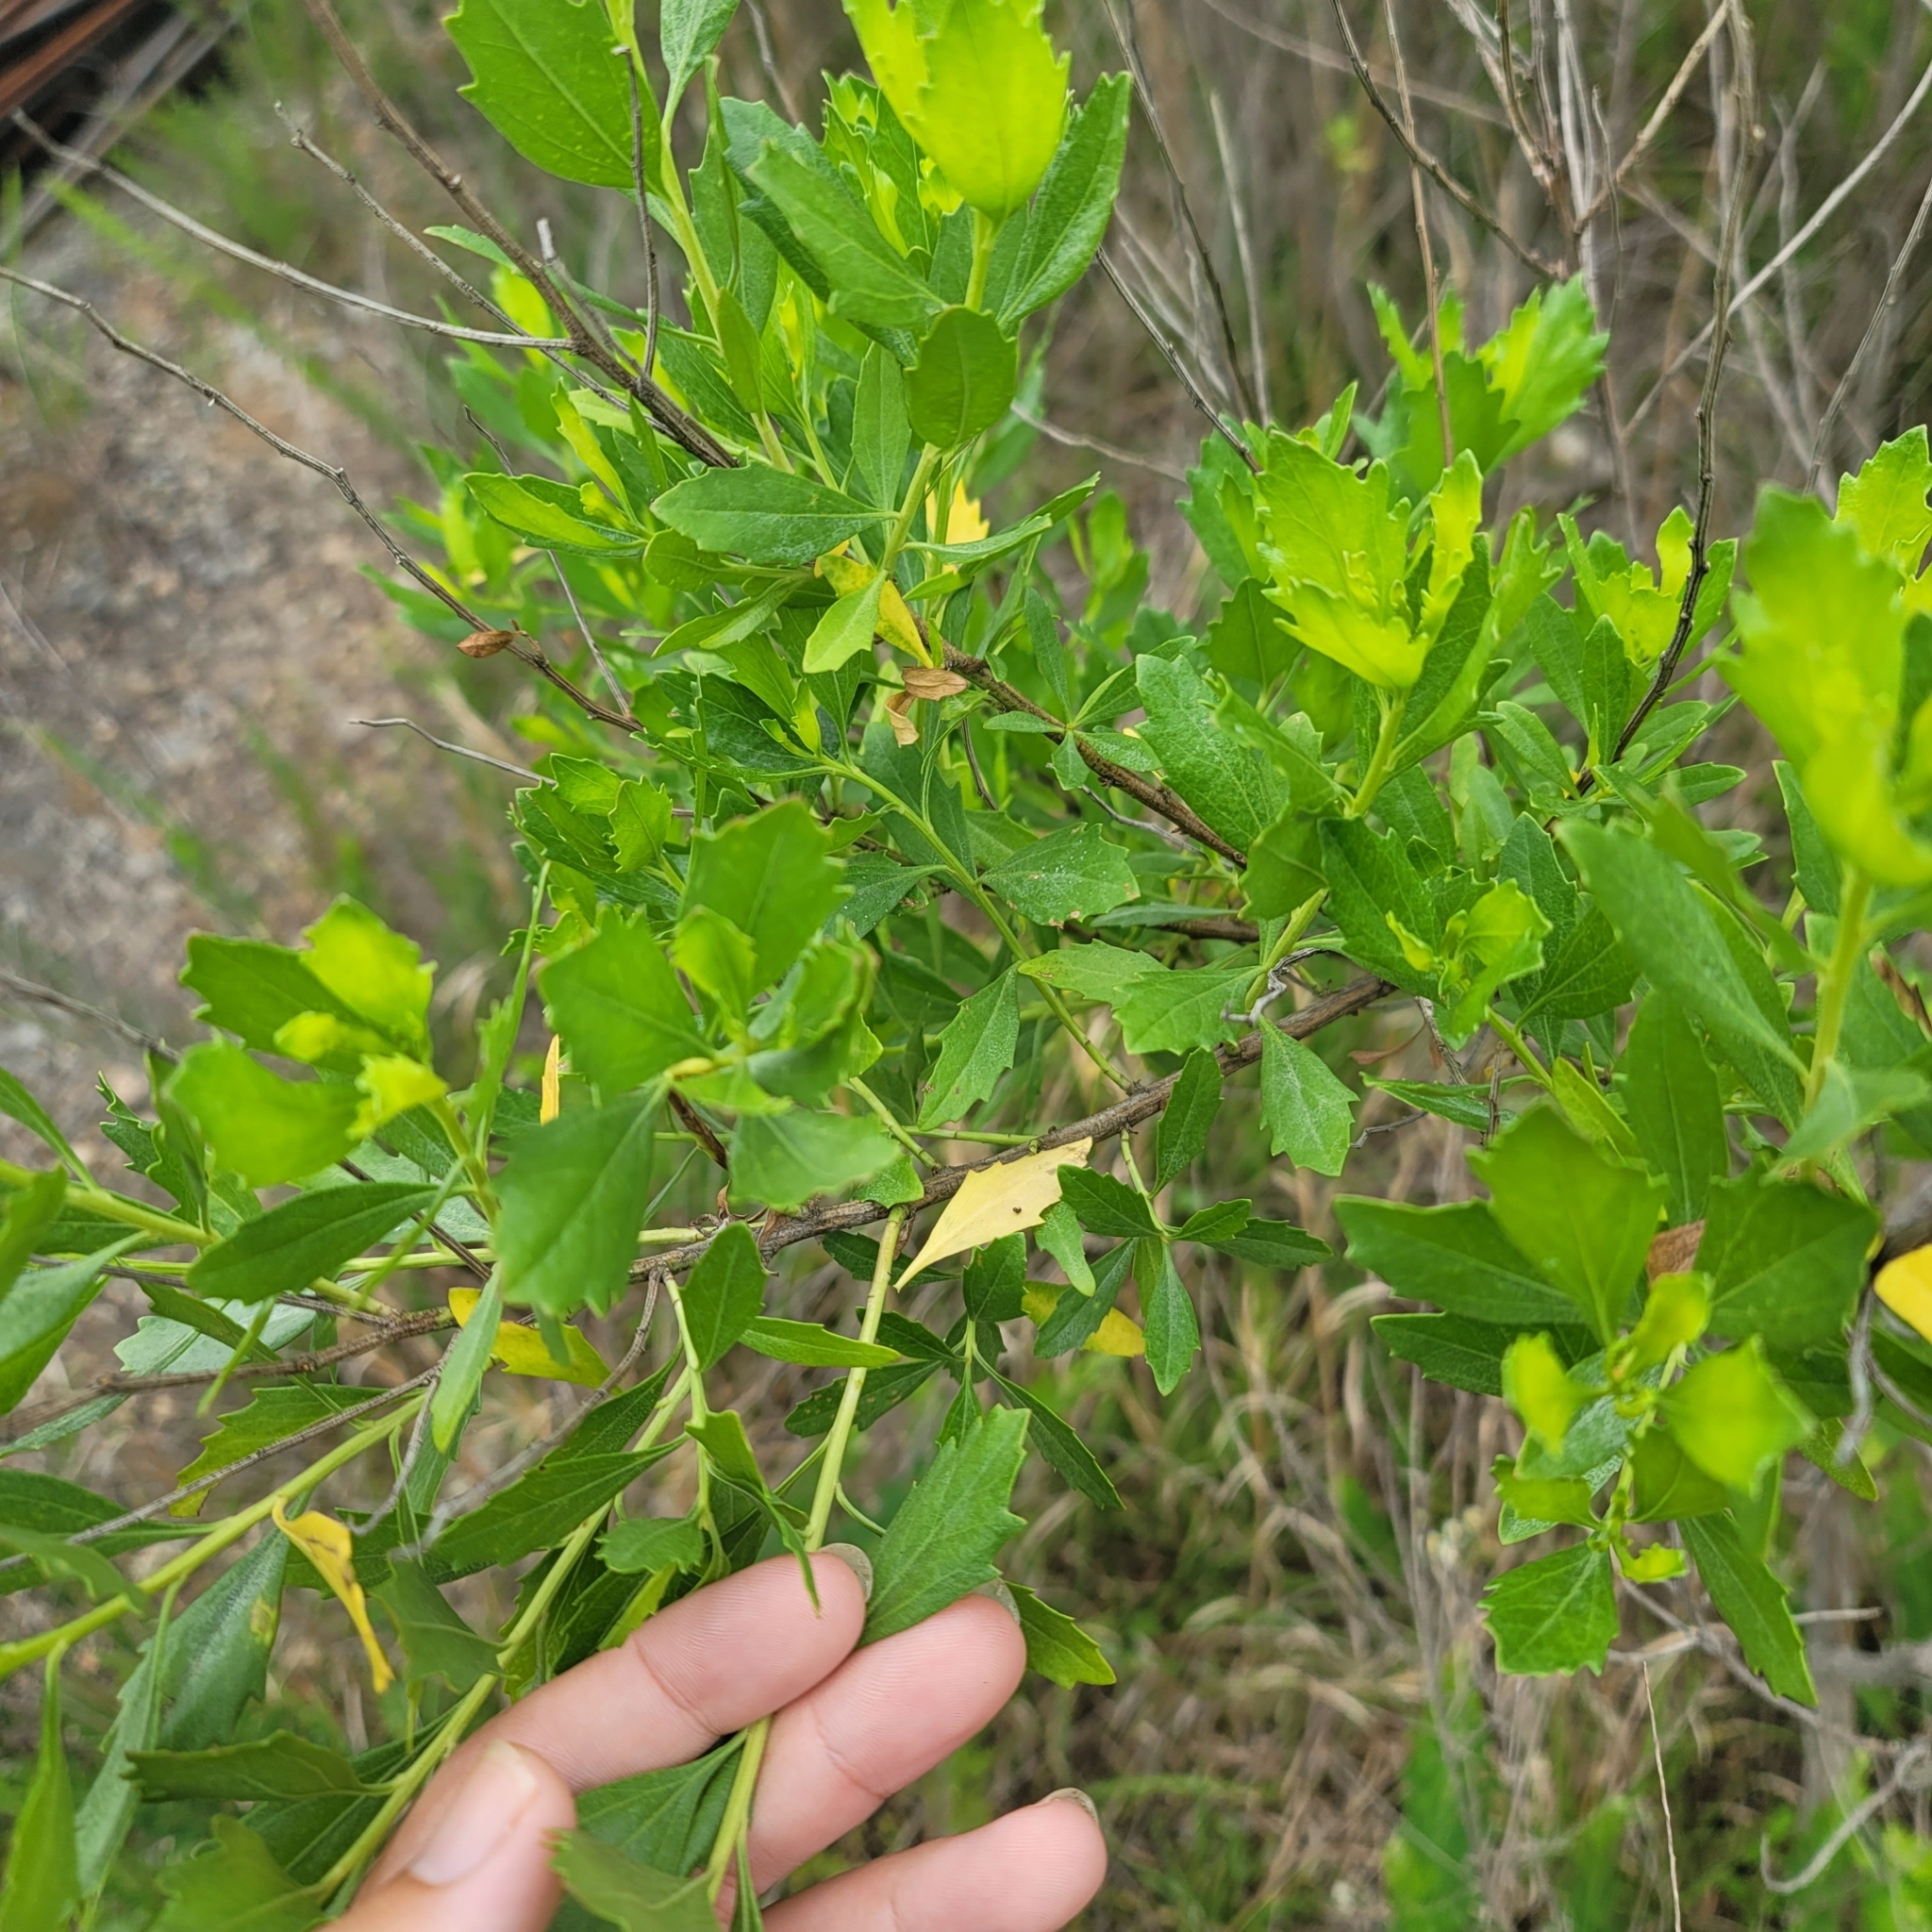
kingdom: Plantae
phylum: Tracheophyta
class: Magnoliopsida
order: Asterales
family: Asteraceae
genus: Baccharis
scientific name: Baccharis halimifolia
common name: Eastern baccharis
